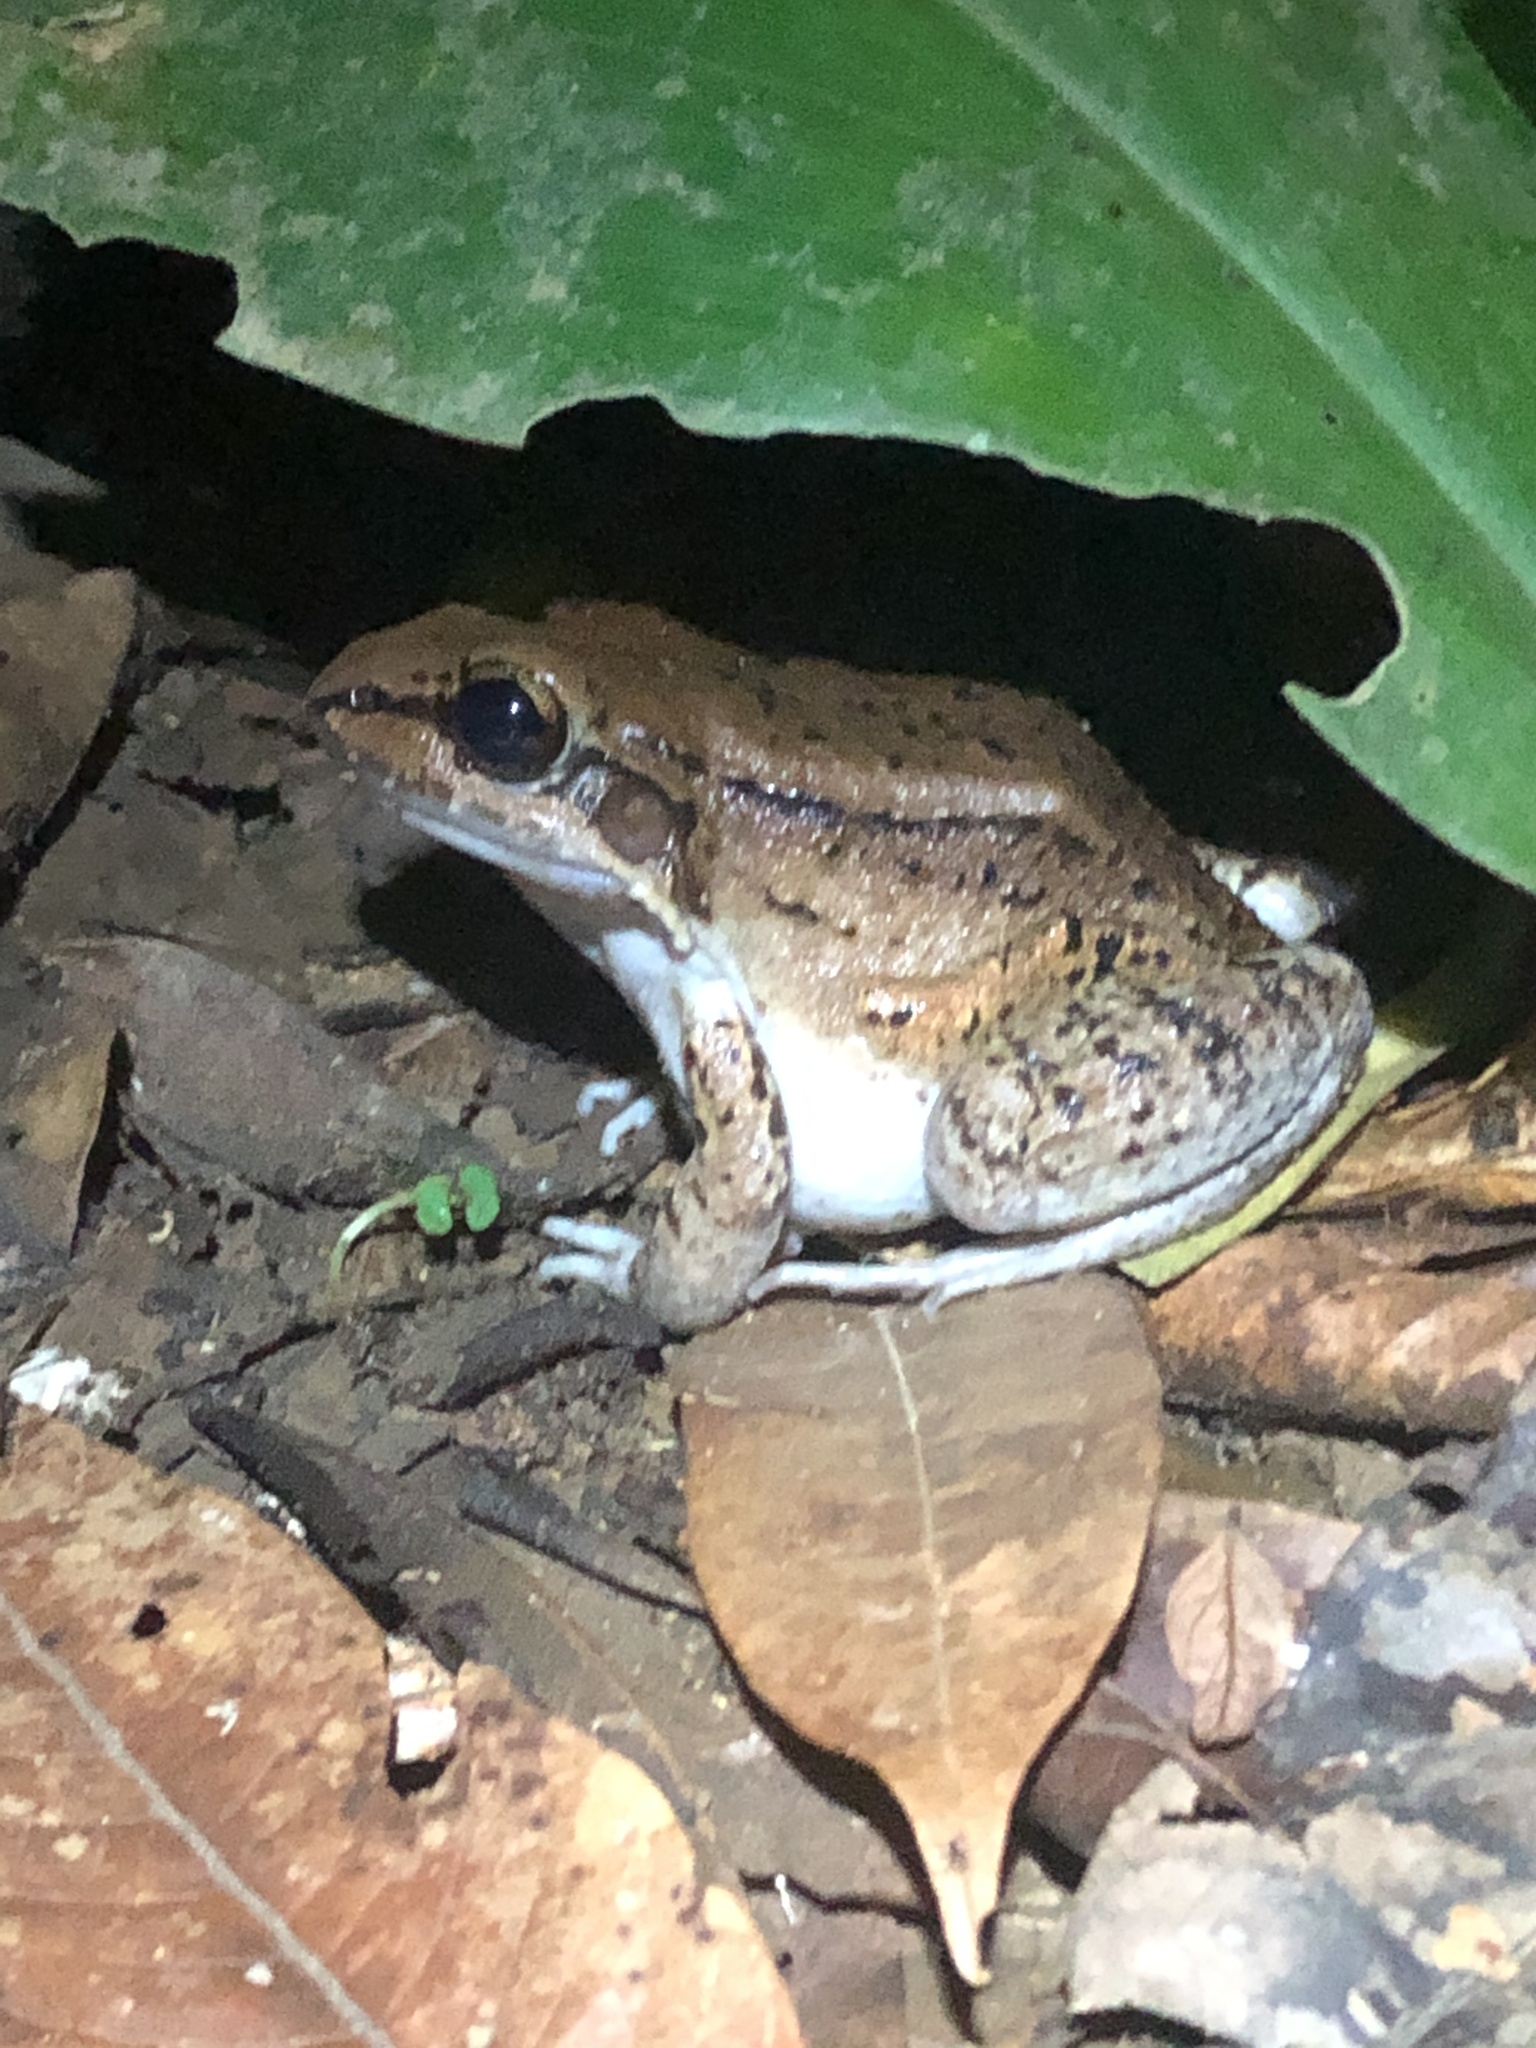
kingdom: Animalia
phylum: Chordata
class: Amphibia
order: Anura
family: Leptodactylidae
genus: Leptodactylus
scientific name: Leptodactylus rhodonotus
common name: Peru white-lipped frog
